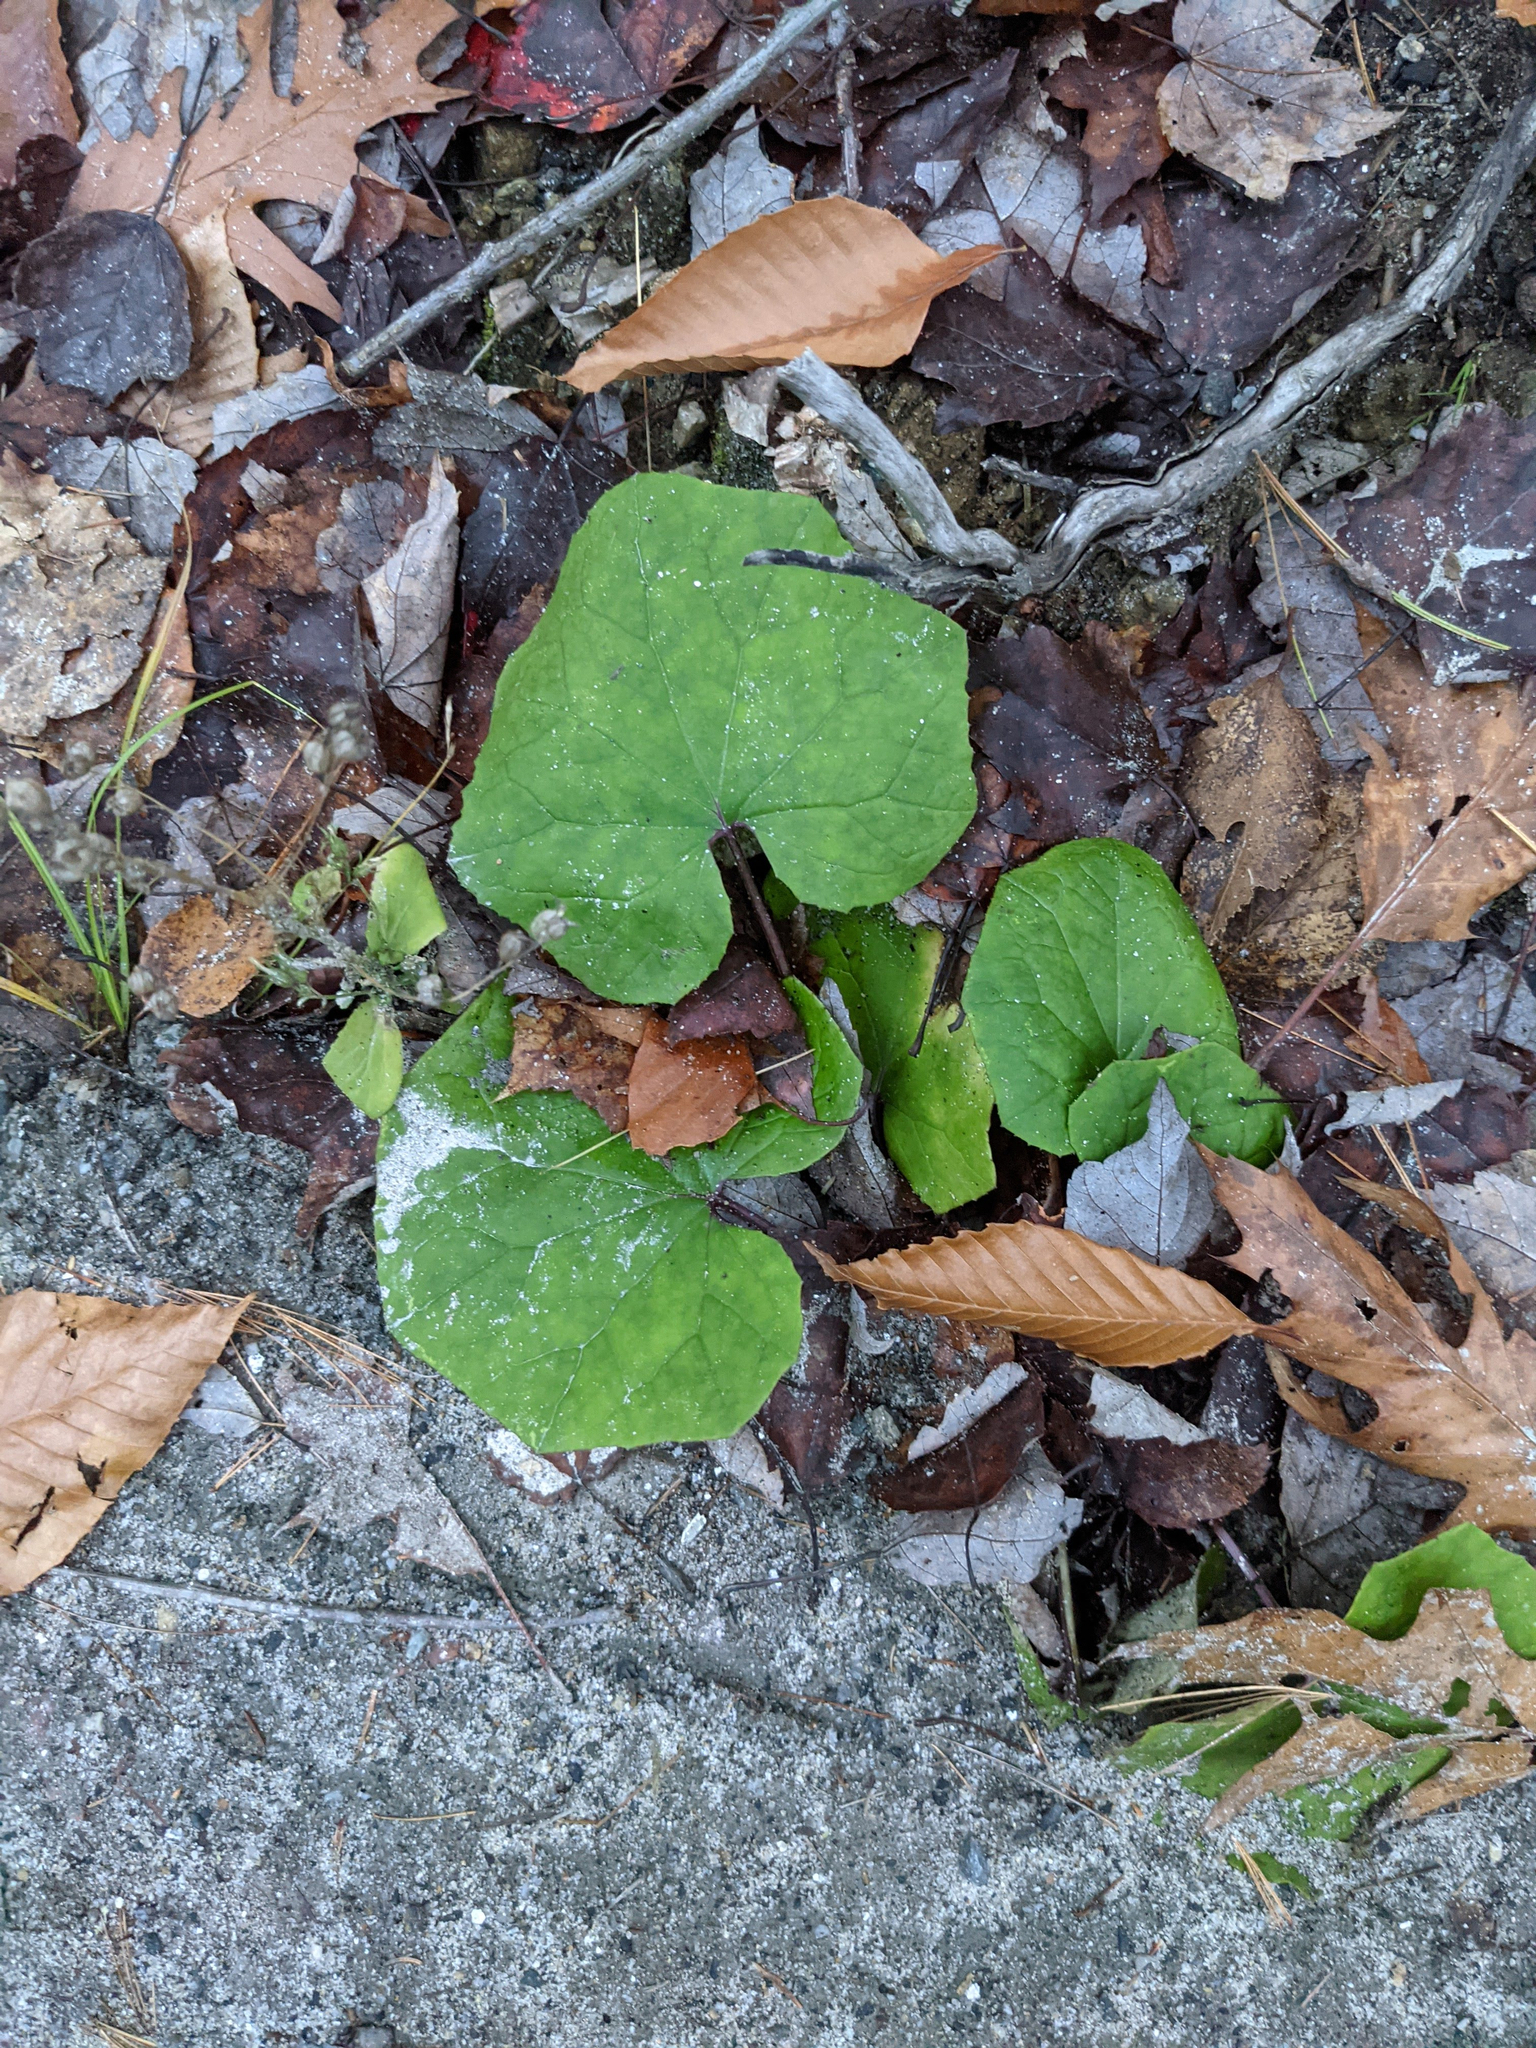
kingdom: Plantae
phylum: Tracheophyta
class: Magnoliopsida
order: Asterales
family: Asteraceae
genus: Tussilago
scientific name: Tussilago farfara
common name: Coltsfoot
